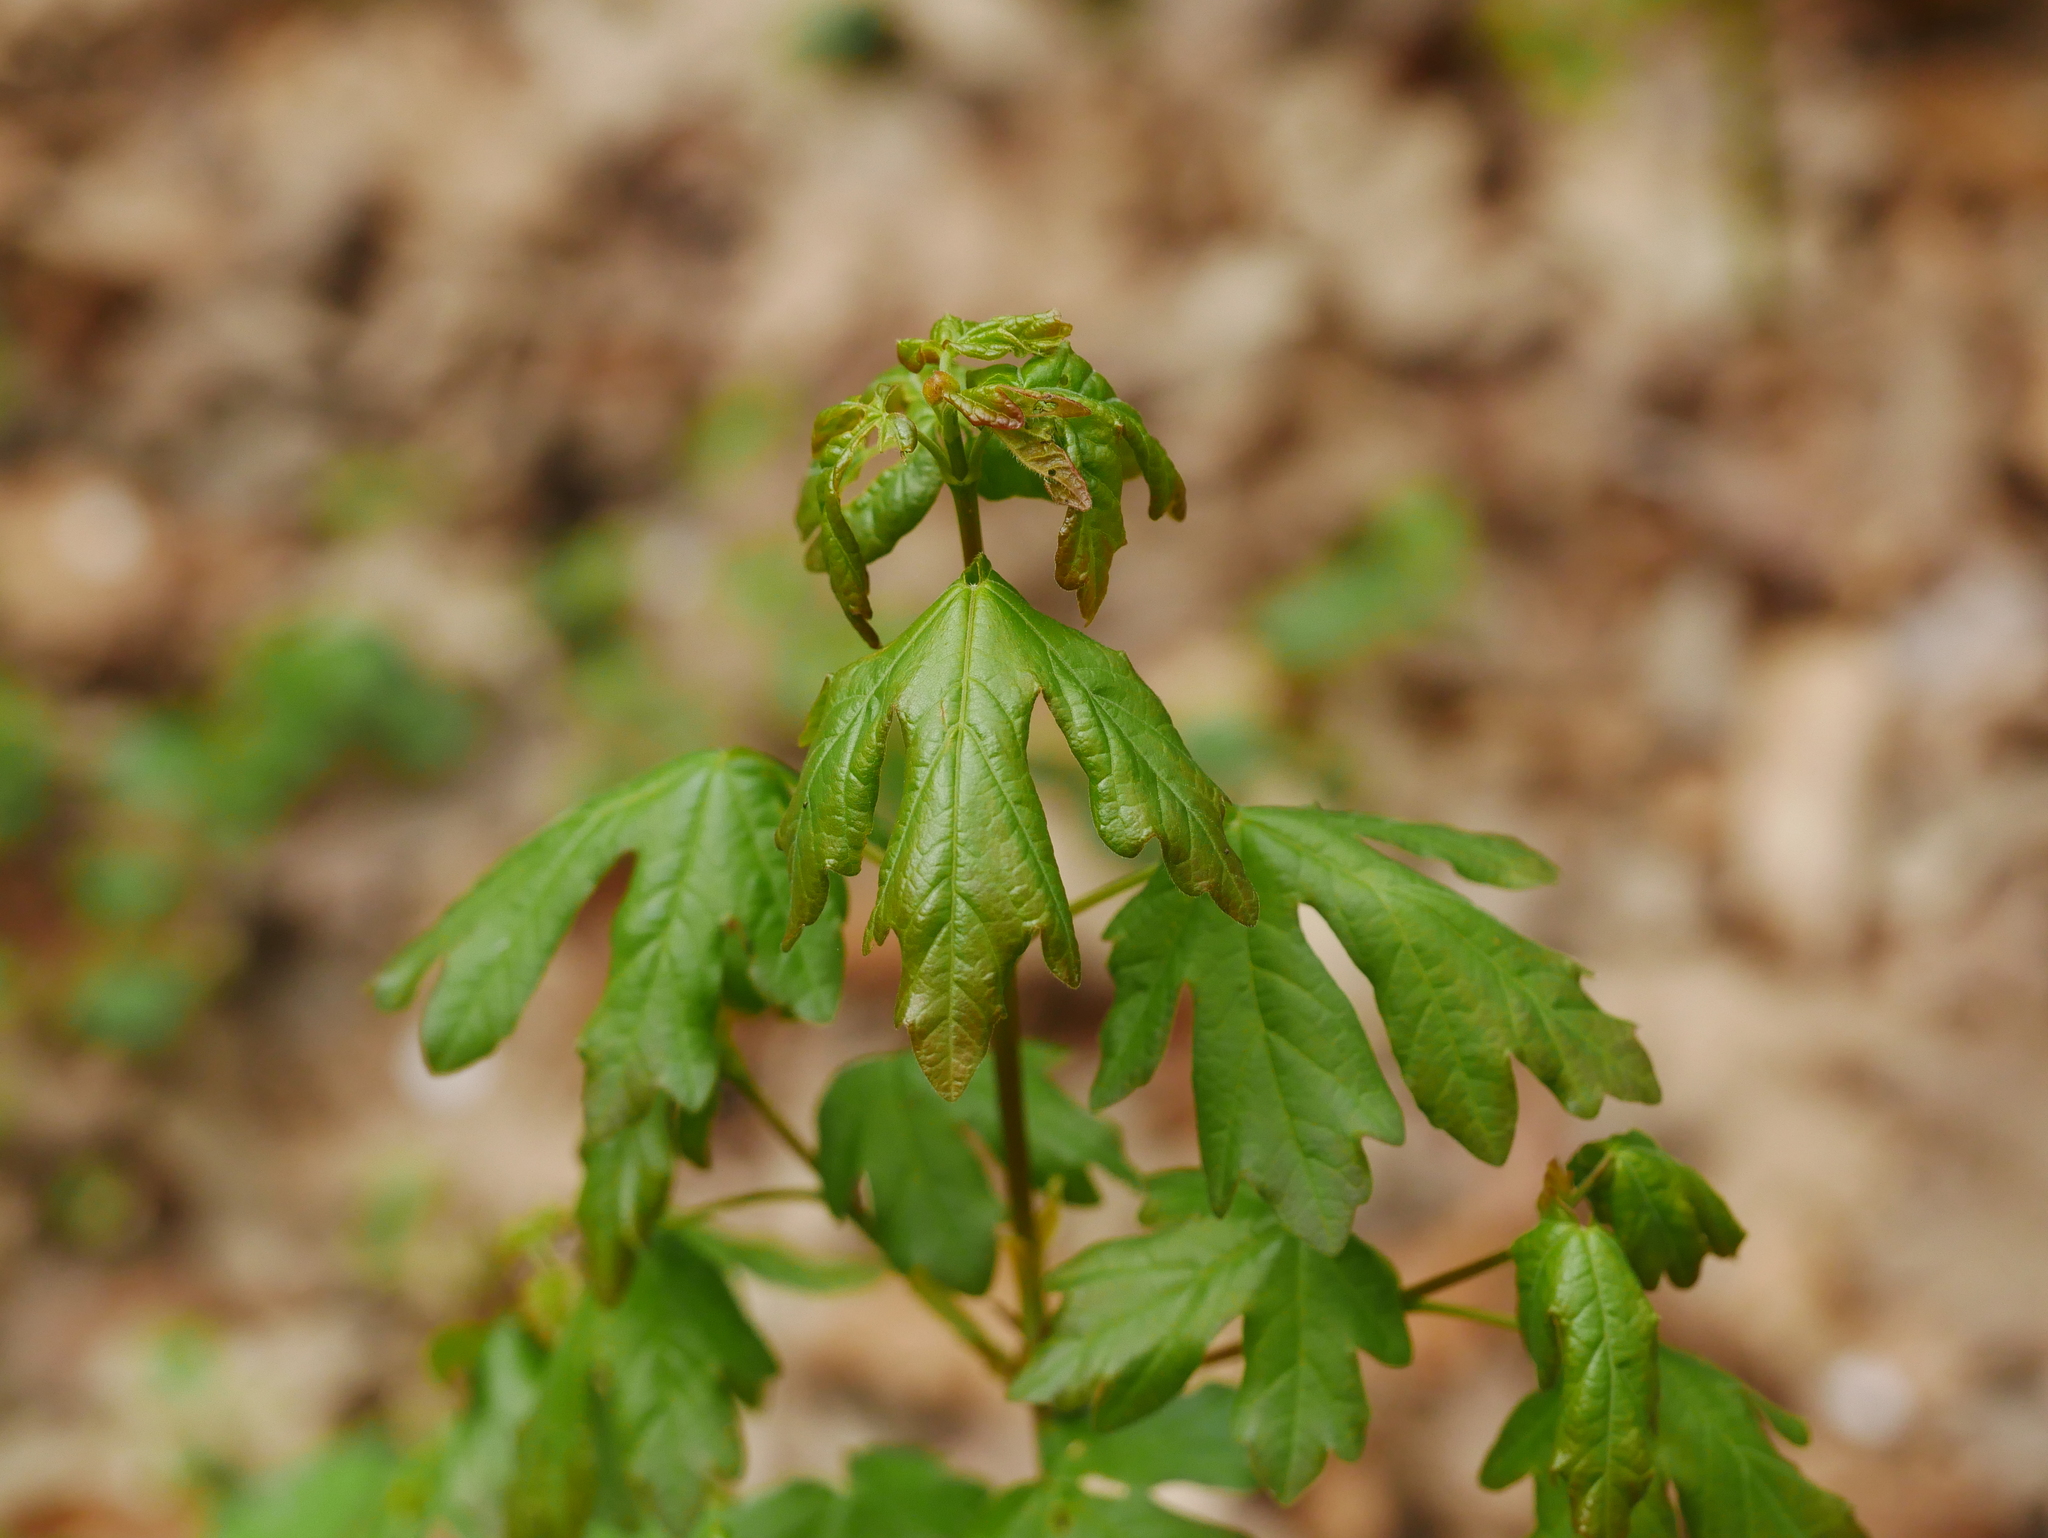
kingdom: Plantae
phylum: Tracheophyta
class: Magnoliopsida
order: Sapindales
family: Sapindaceae
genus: Acer
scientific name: Acer campestre
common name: Field maple
